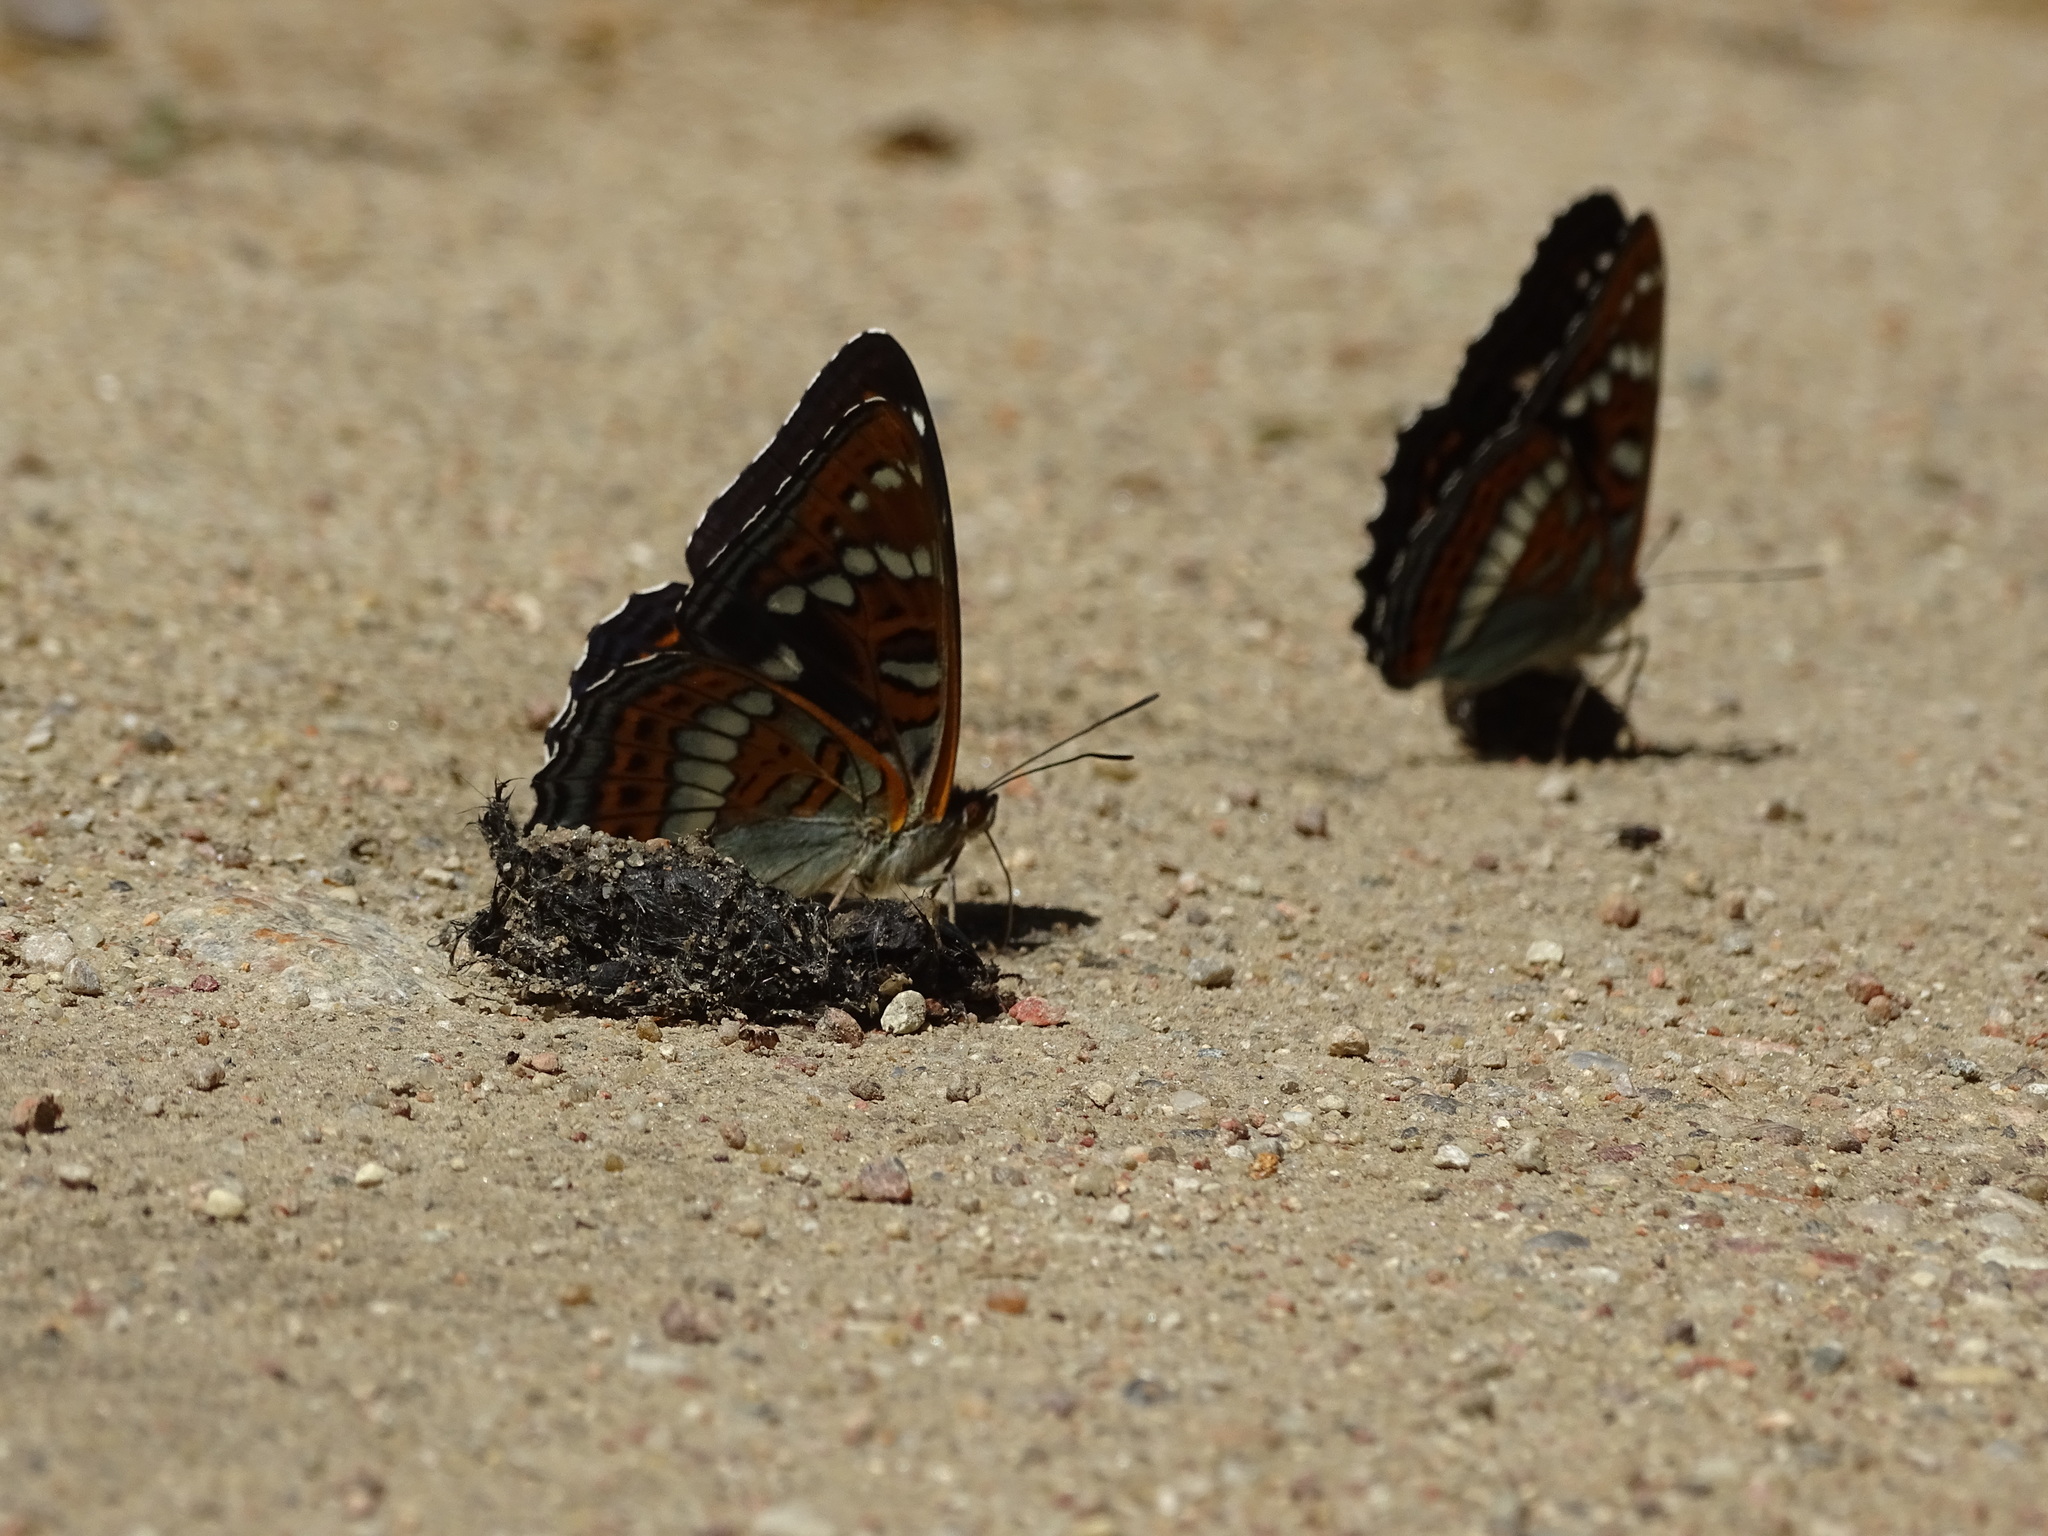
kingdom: Animalia
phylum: Arthropoda
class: Insecta
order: Lepidoptera
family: Nymphalidae
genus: Limenitis
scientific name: Limenitis populi
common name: Poplar admiral
